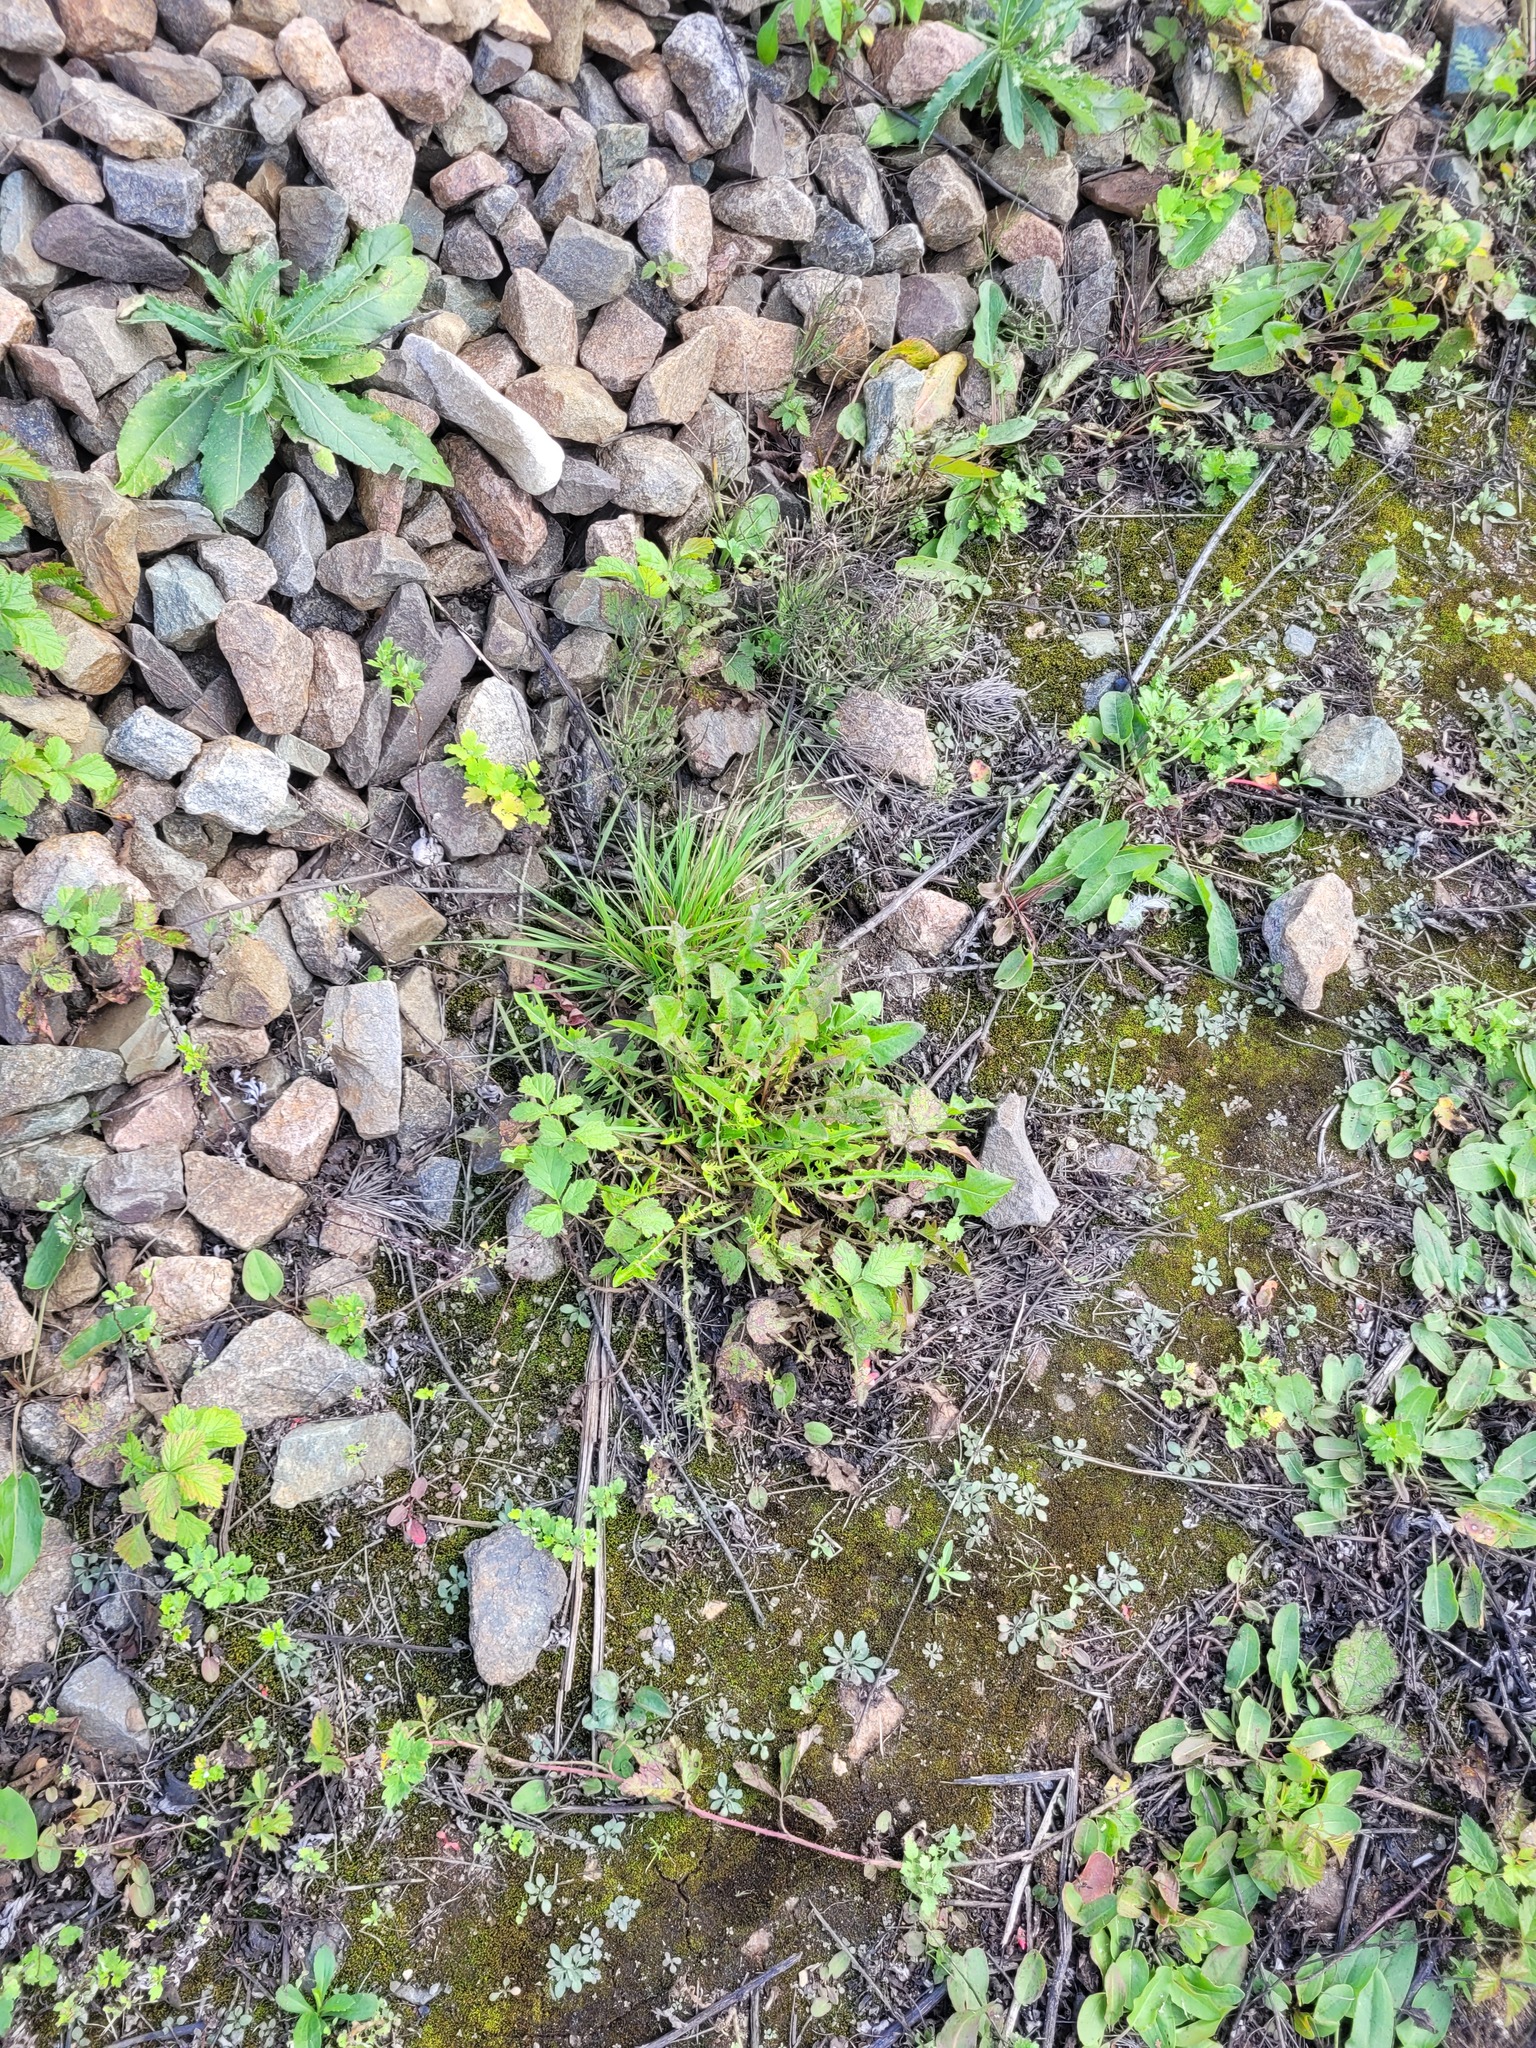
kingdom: Plantae
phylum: Tracheophyta
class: Magnoliopsida
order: Asterales
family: Asteraceae
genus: Taraxacum
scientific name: Taraxacum officinale
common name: Common dandelion
